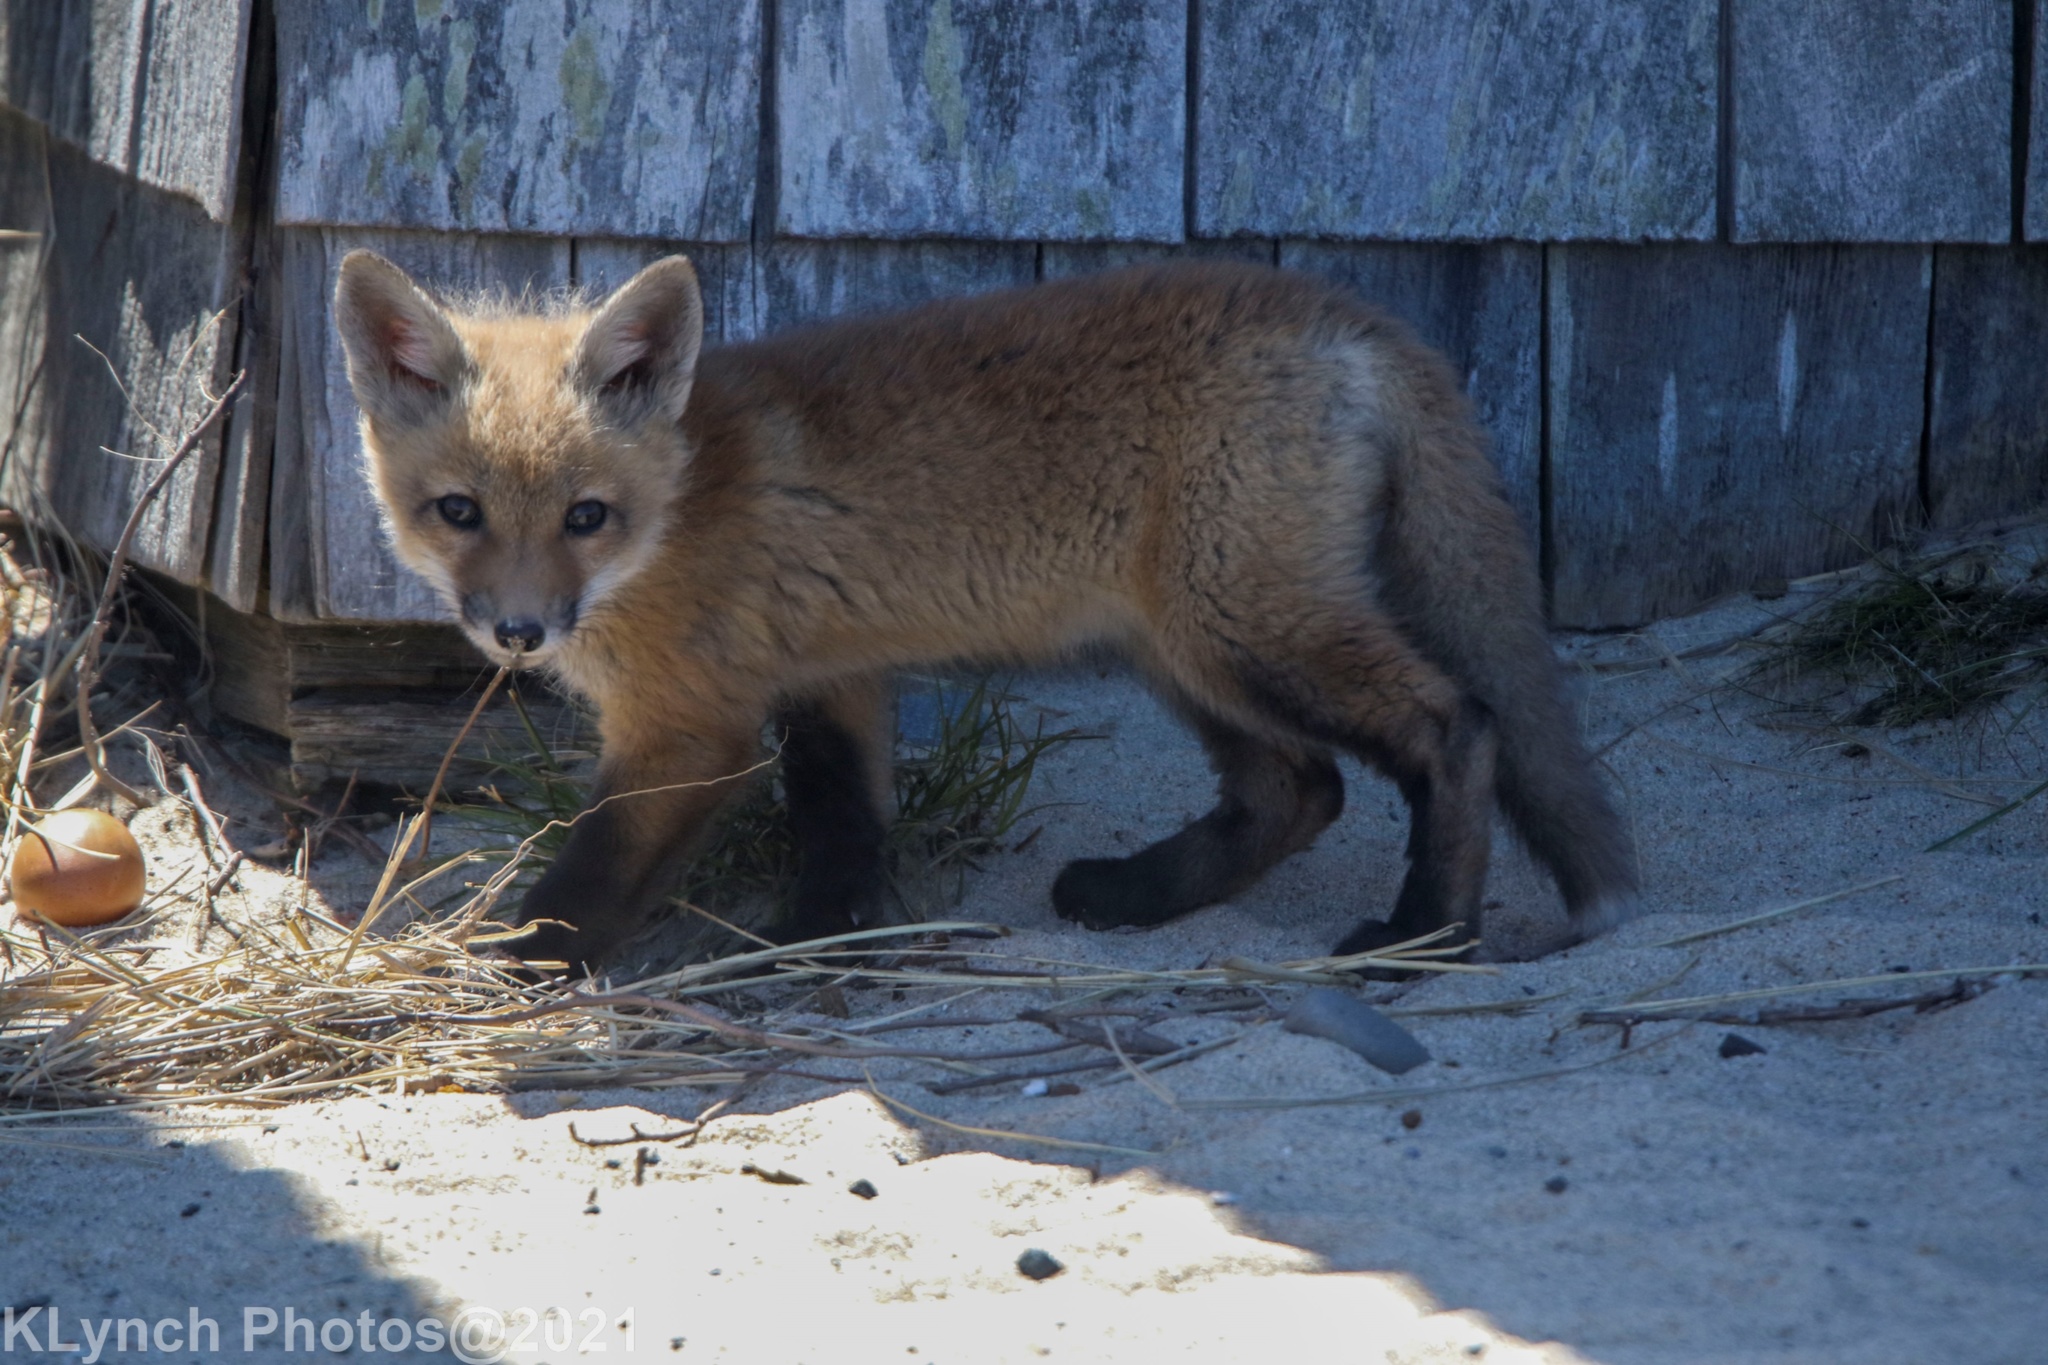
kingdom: Animalia
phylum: Chordata
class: Mammalia
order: Carnivora
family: Canidae
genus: Vulpes
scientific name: Vulpes vulpes
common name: Red fox
